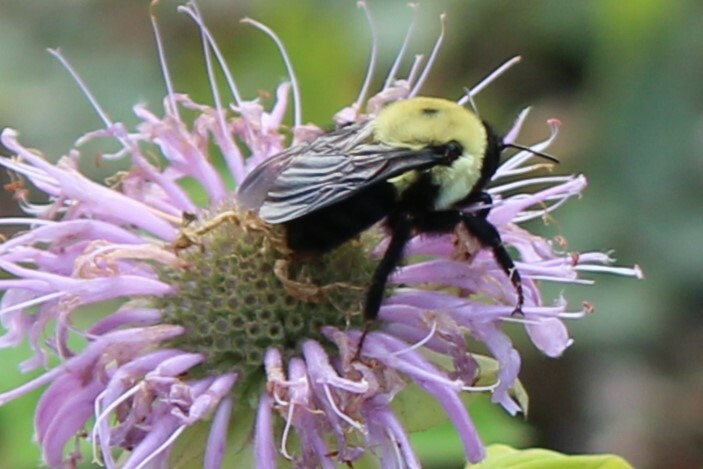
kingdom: Animalia
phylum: Arthropoda
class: Insecta
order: Hymenoptera
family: Apidae
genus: Bombus
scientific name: Bombus griseocollis
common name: Brown-belted bumble bee
